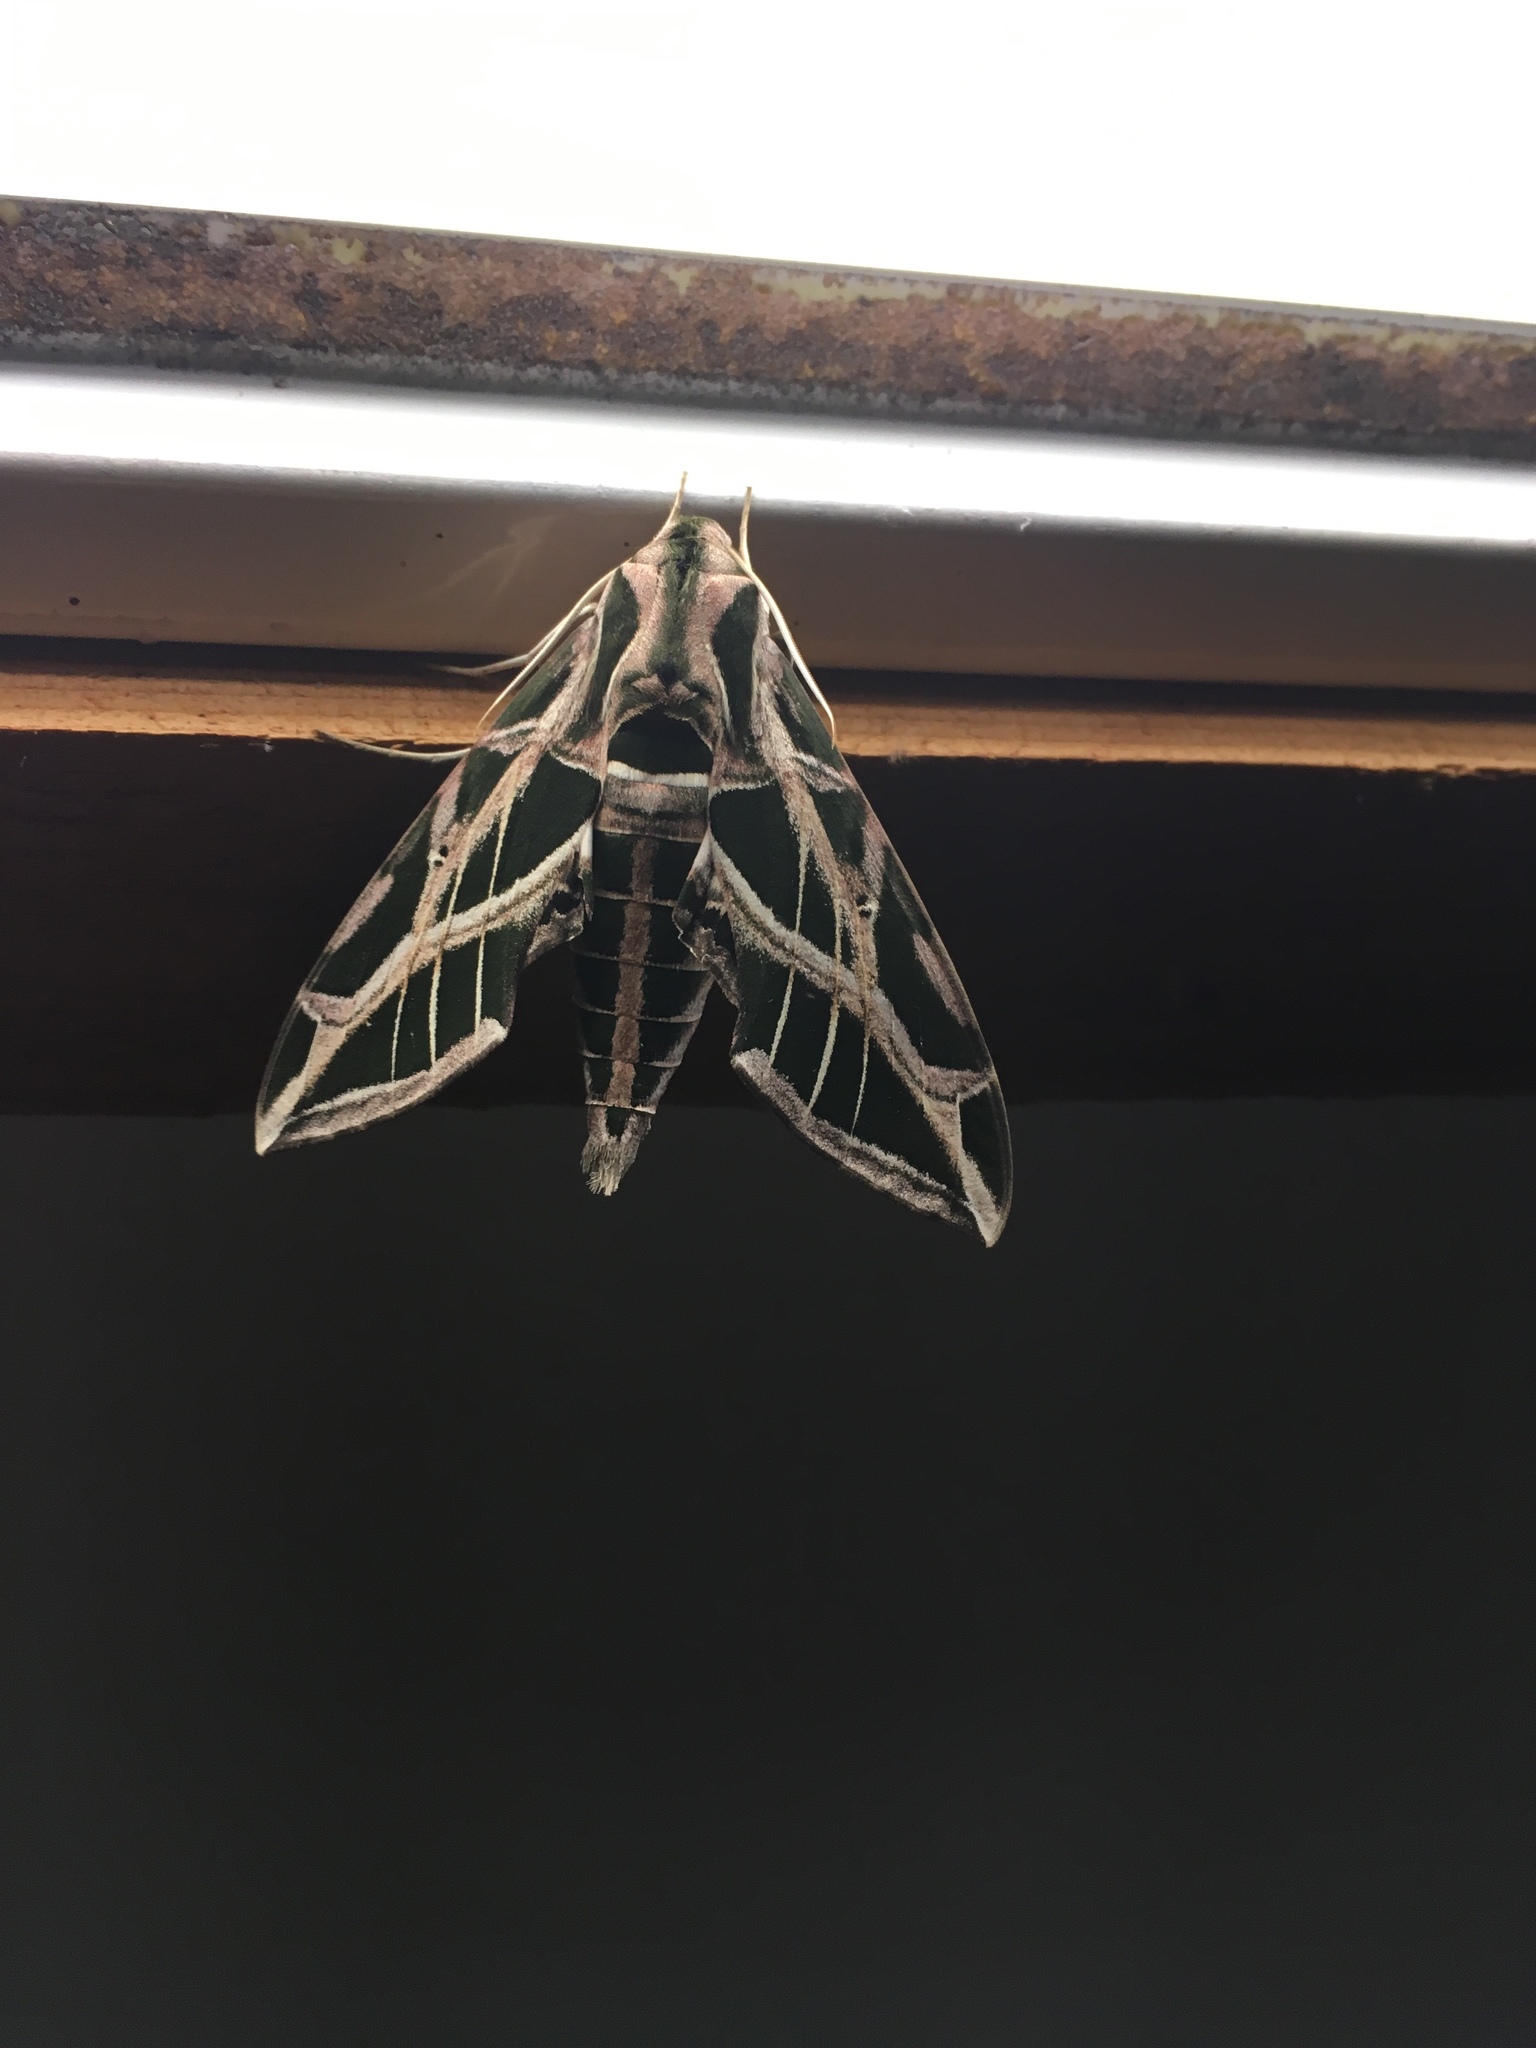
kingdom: Animalia
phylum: Arthropoda
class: Insecta
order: Lepidoptera
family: Sphingidae
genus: Eumorpha
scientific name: Eumorpha vitis
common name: Vine sphinx
